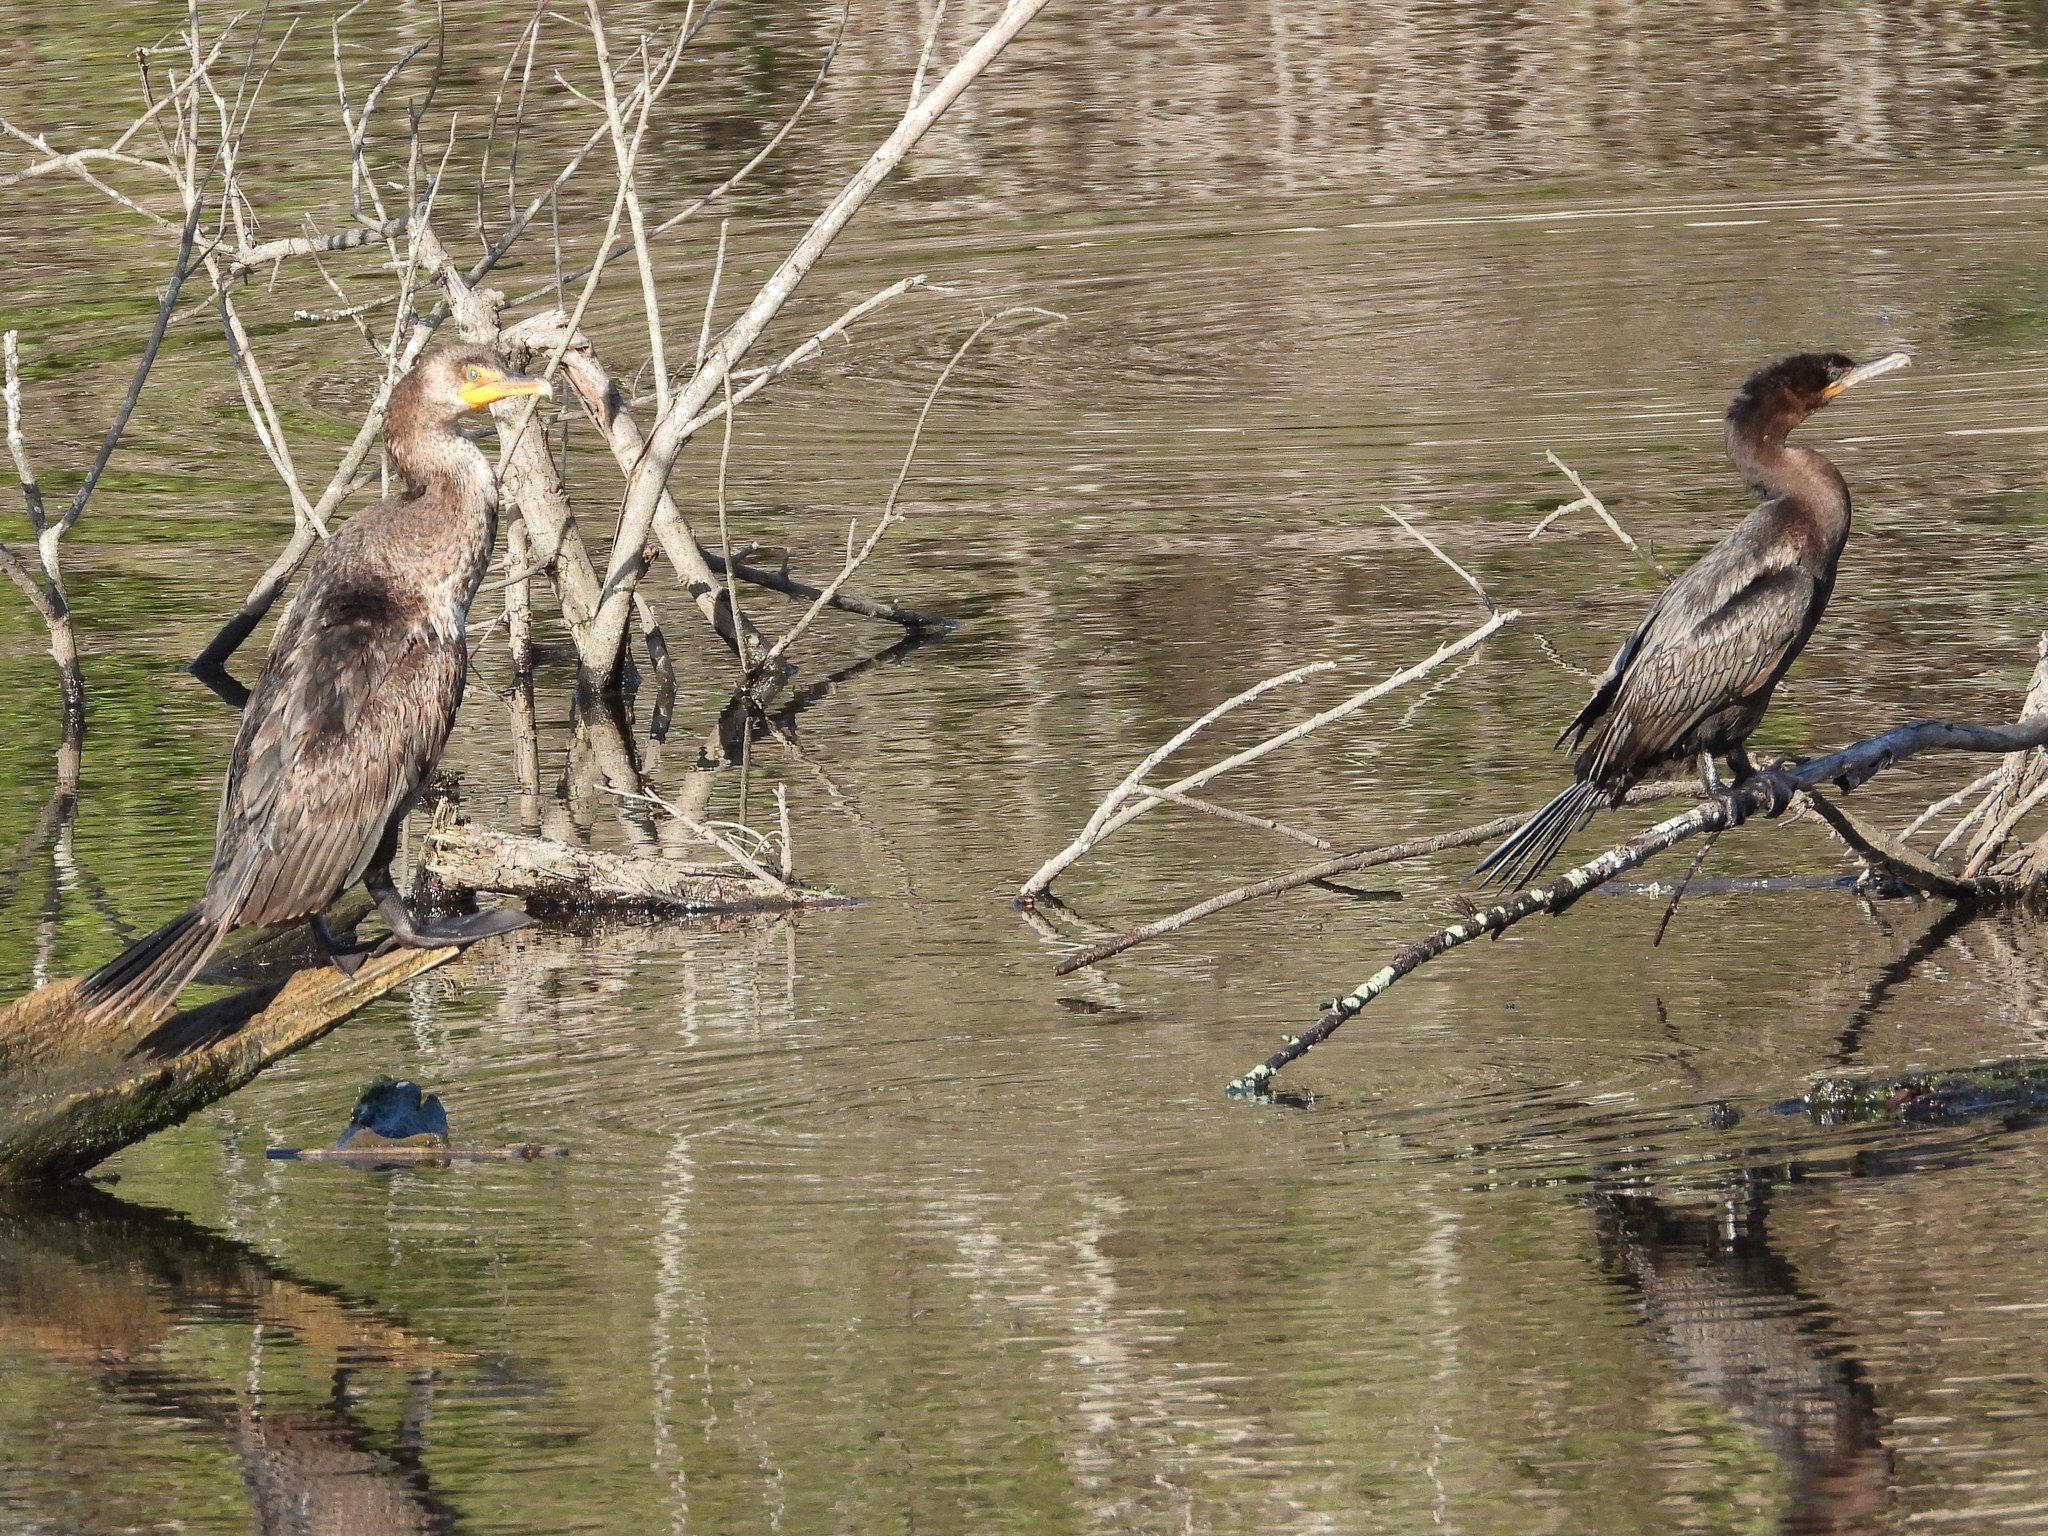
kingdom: Animalia
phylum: Chordata
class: Aves
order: Suliformes
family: Phalacrocoracidae
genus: Phalacrocorax
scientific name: Phalacrocorax auritus
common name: Double-crested cormorant
